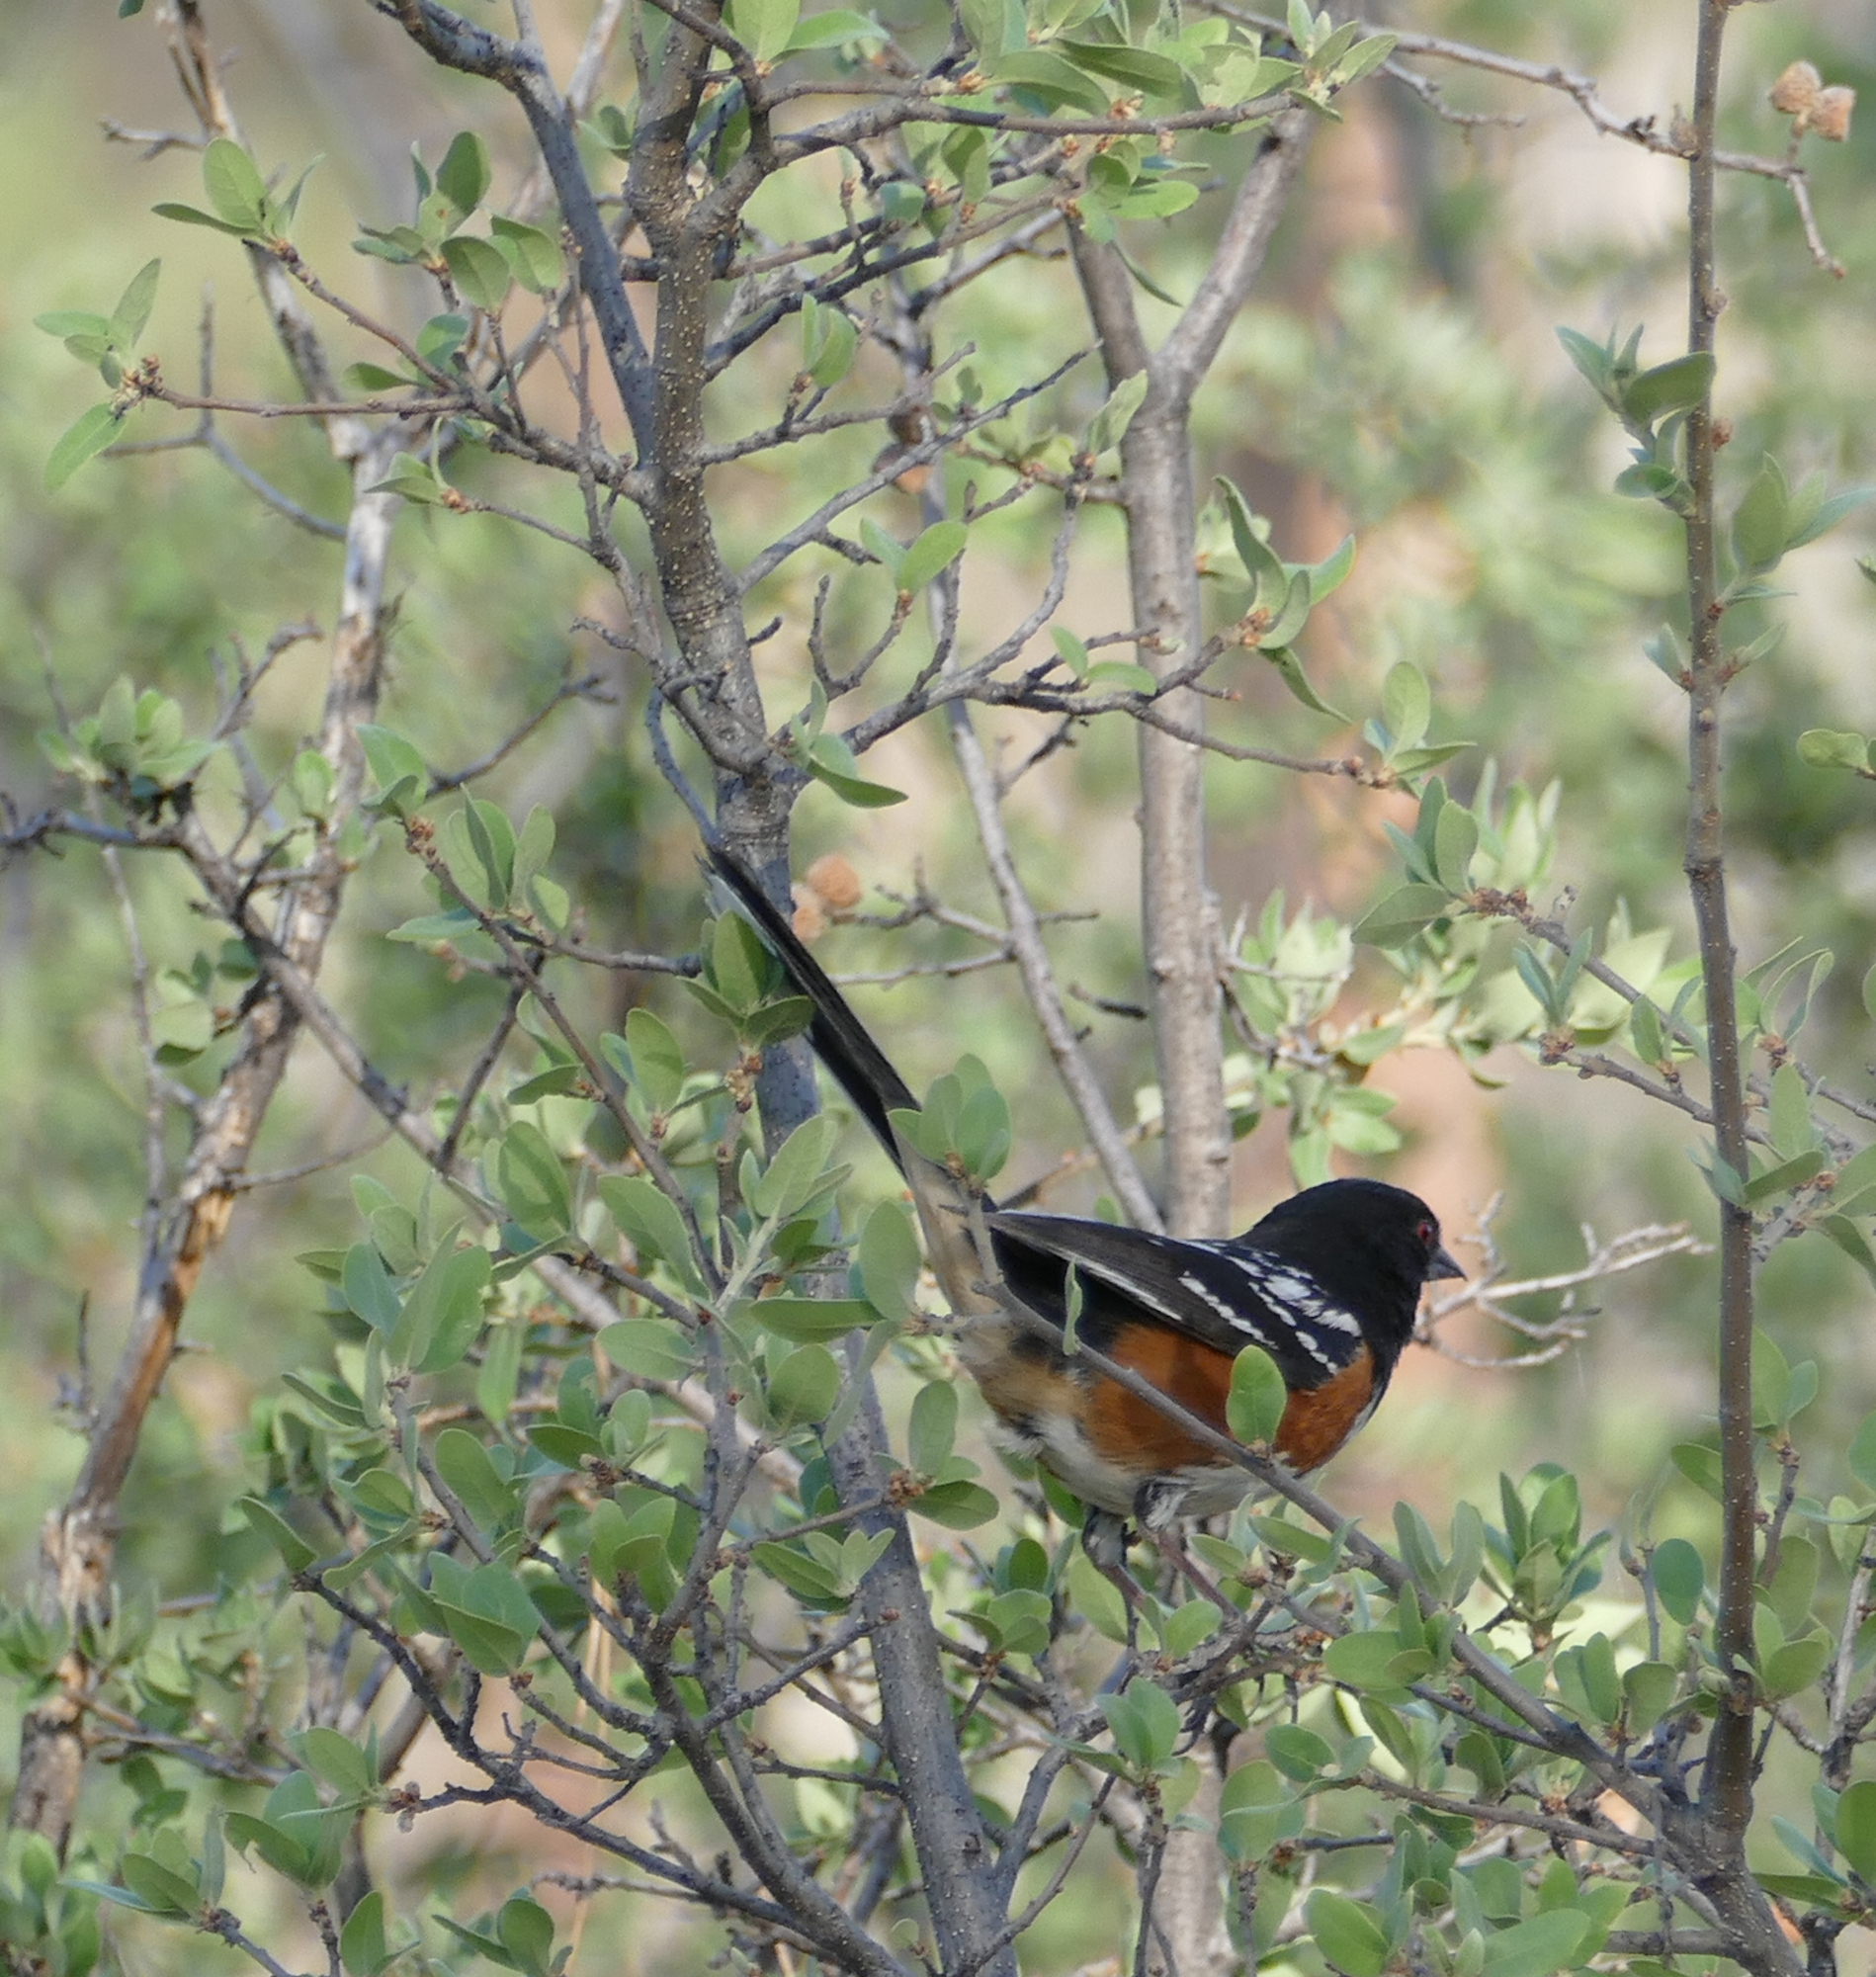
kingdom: Animalia
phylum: Chordata
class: Aves
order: Passeriformes
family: Passerellidae
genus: Pipilo
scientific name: Pipilo maculatus
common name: Spotted towhee
